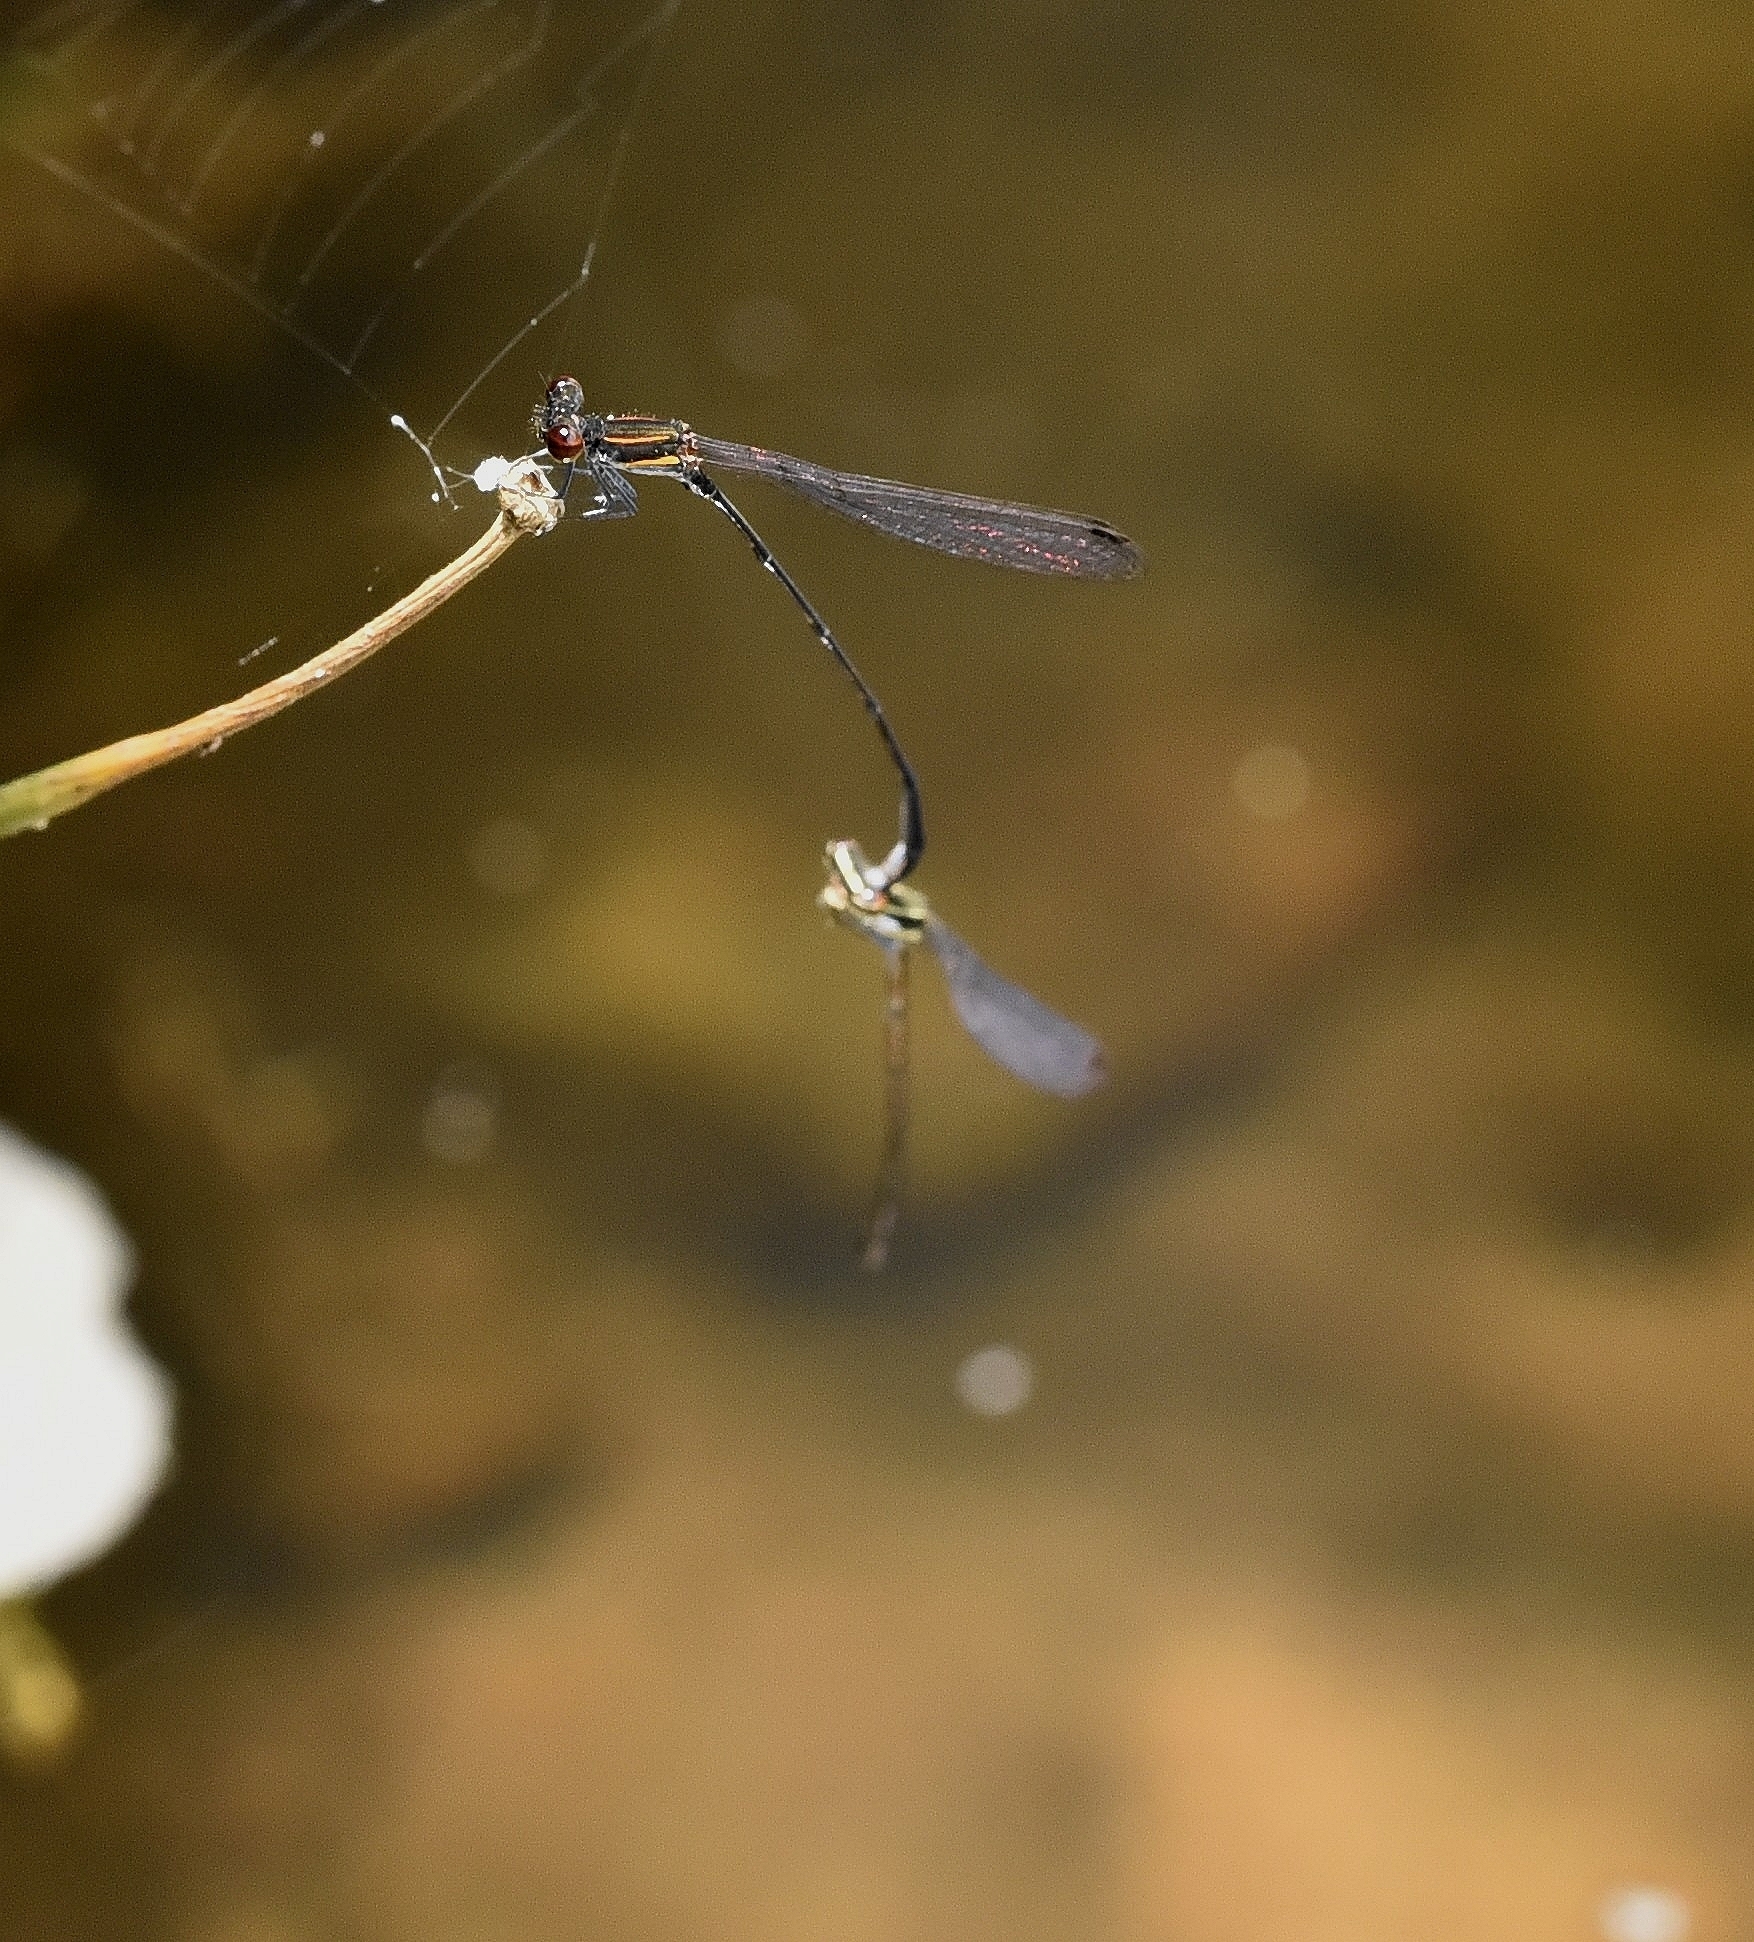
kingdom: Animalia
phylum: Arthropoda
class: Insecta
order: Odonata
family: Platycnemididae
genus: Prodasineura
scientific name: Prodasineura verticalis
